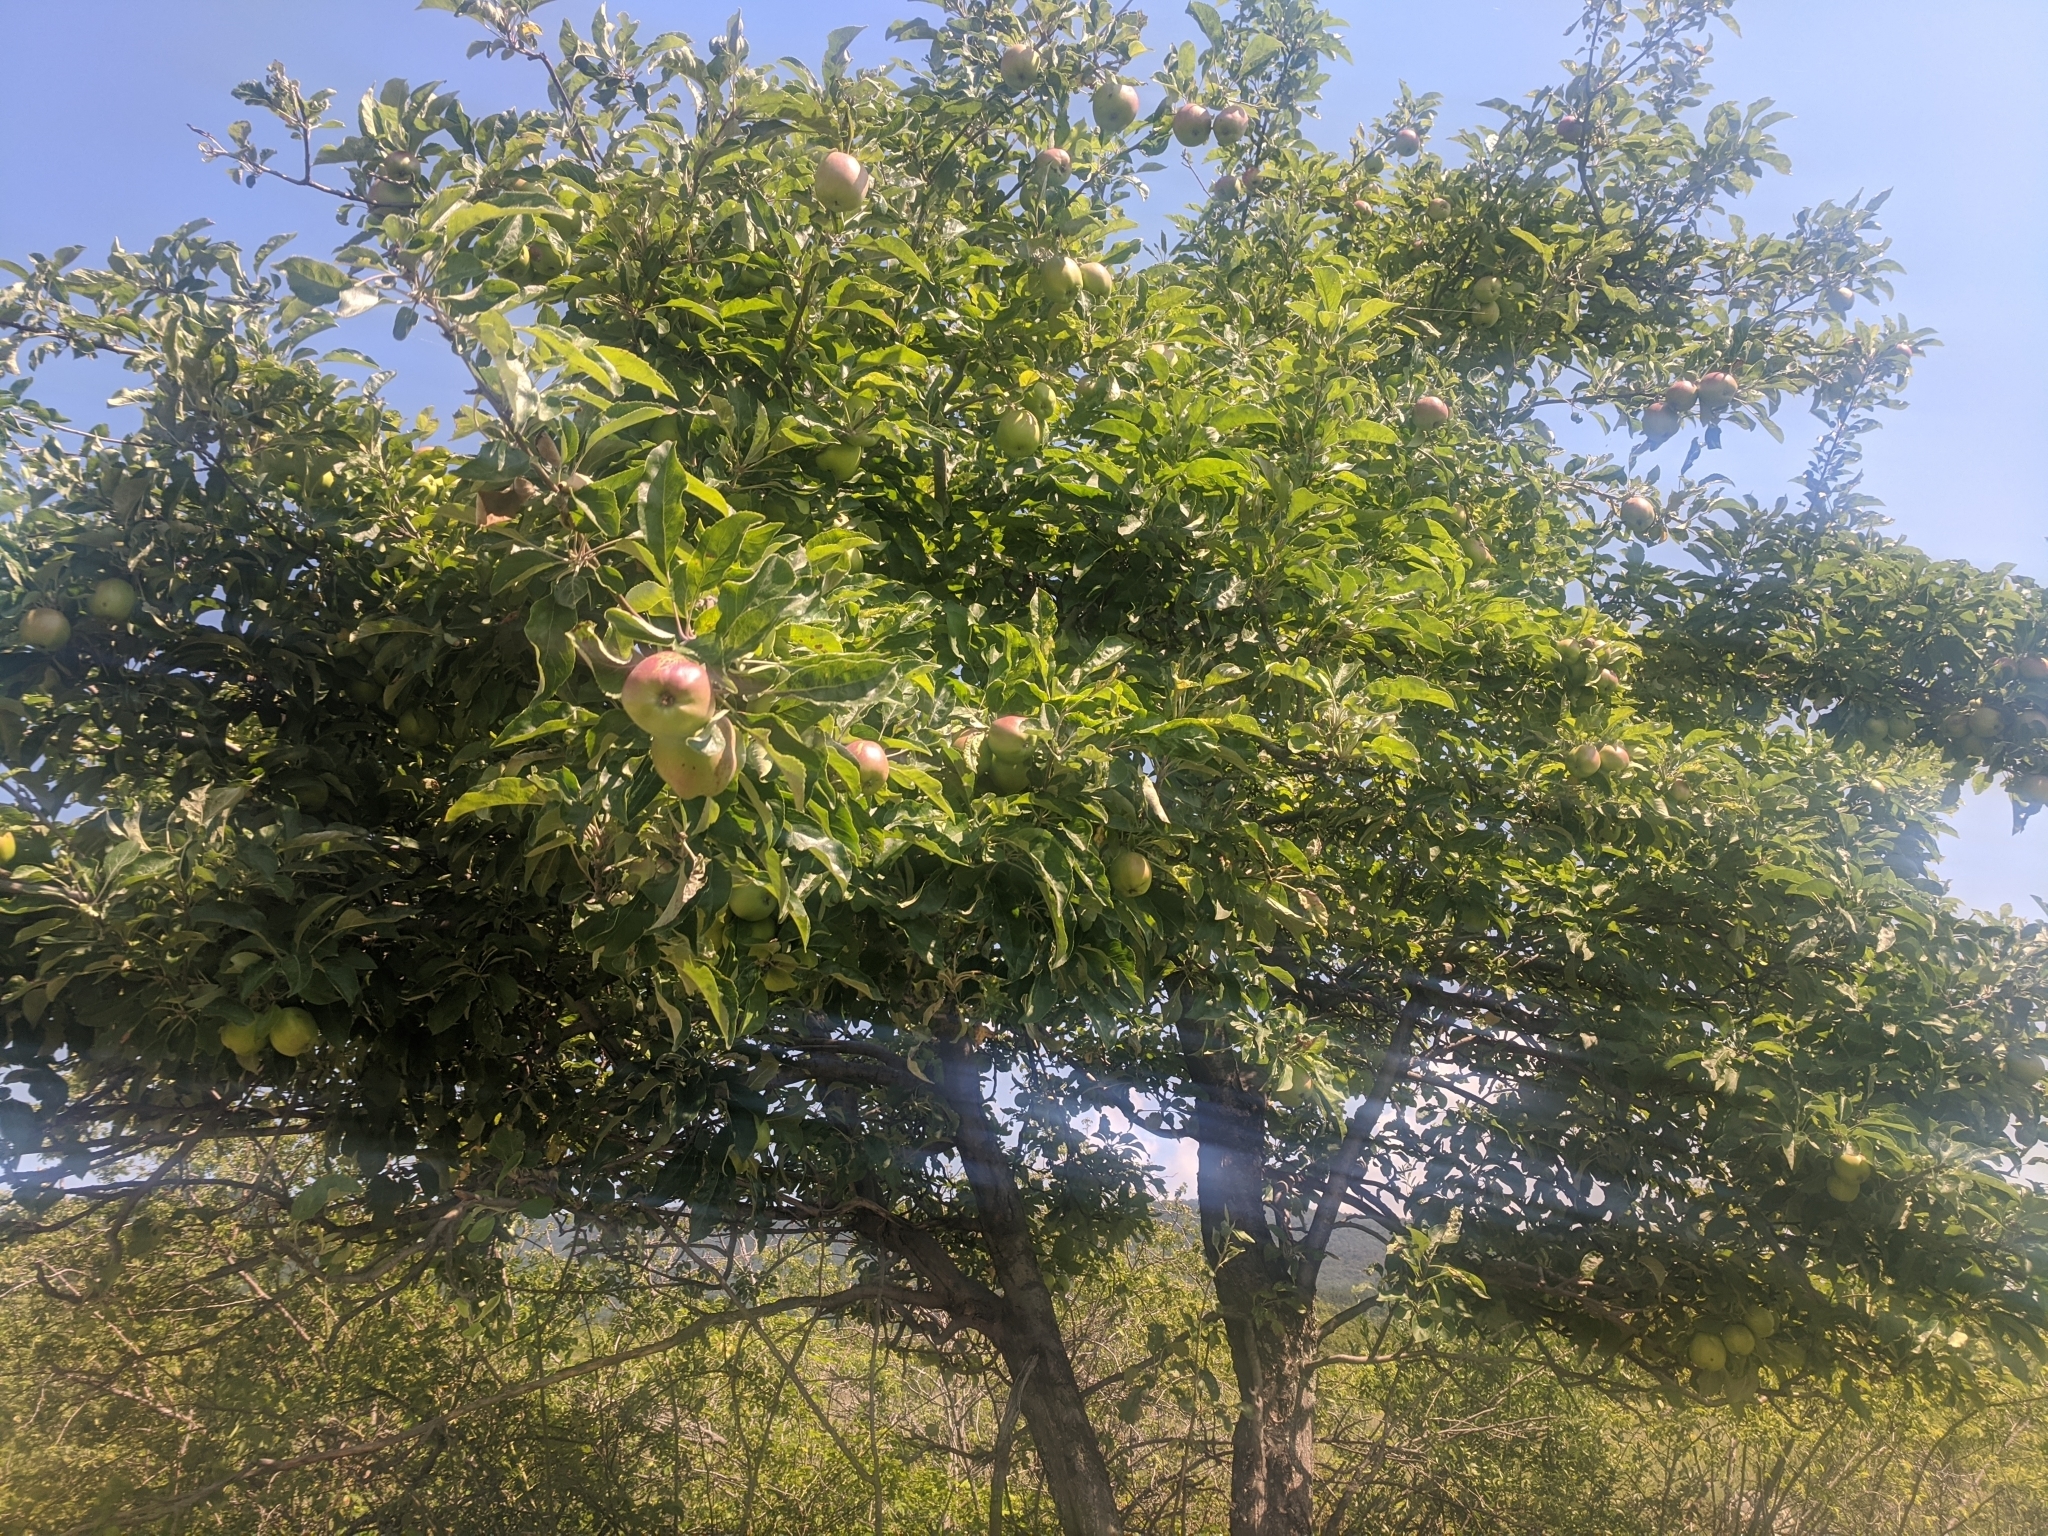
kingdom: Plantae
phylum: Tracheophyta
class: Magnoliopsida
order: Rosales
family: Rosaceae
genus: Malus
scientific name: Malus domestica
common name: Apple
